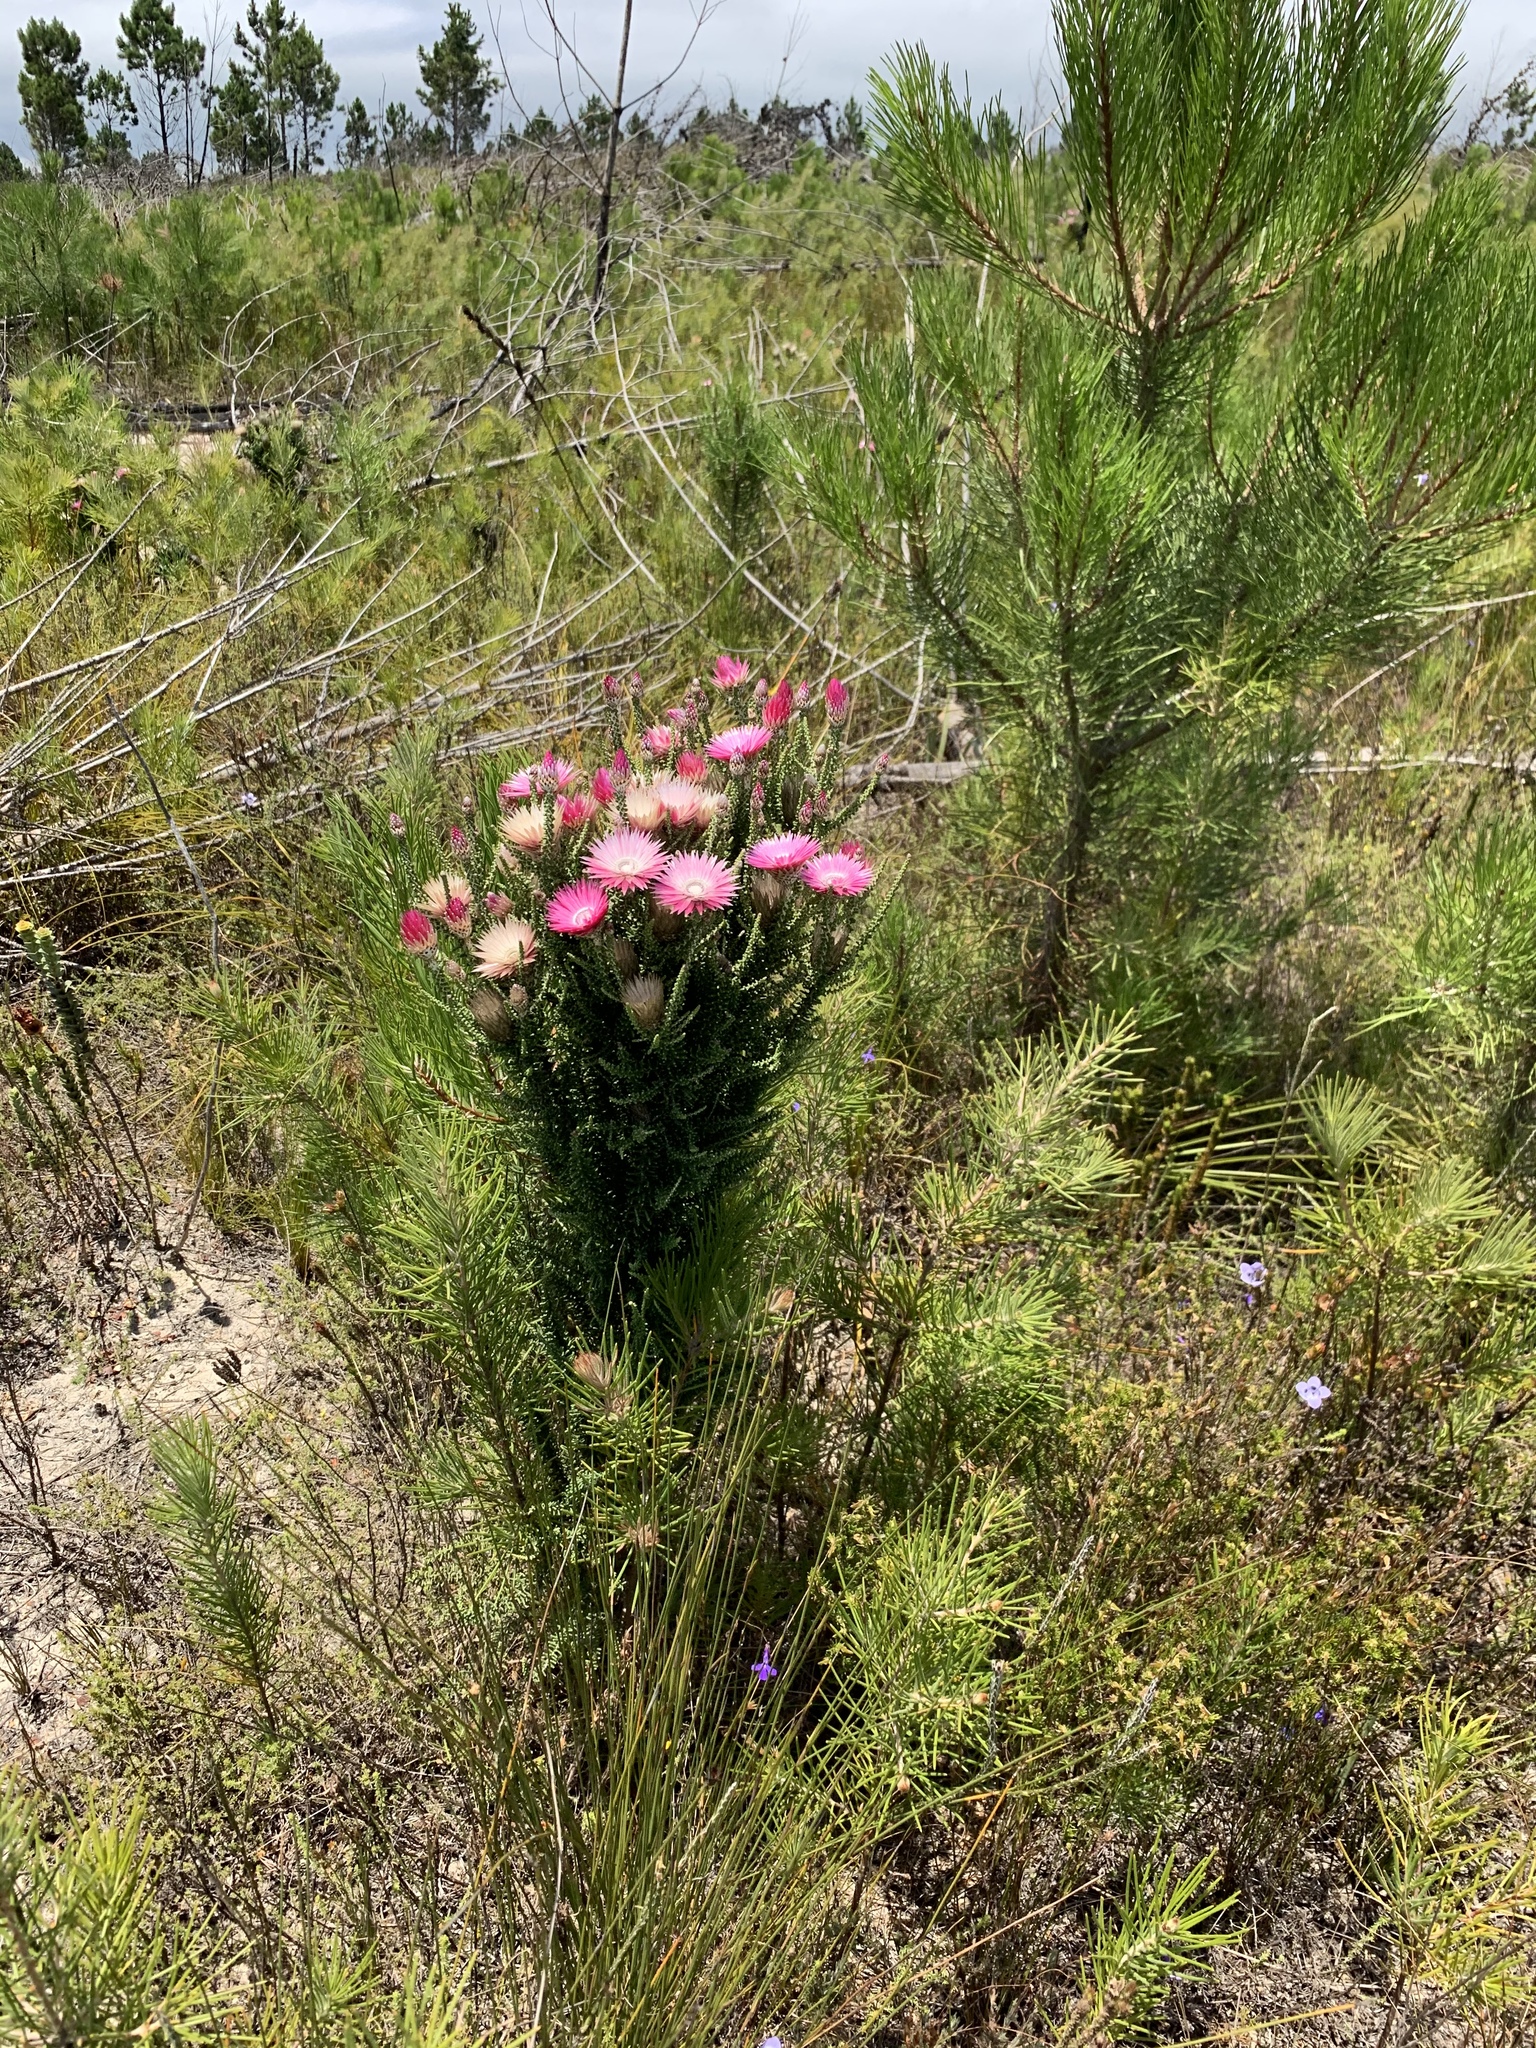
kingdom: Plantae
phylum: Tracheophyta
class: Magnoliopsida
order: Asterales
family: Asteraceae
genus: Phaenocoma
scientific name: Phaenocoma prolifera
